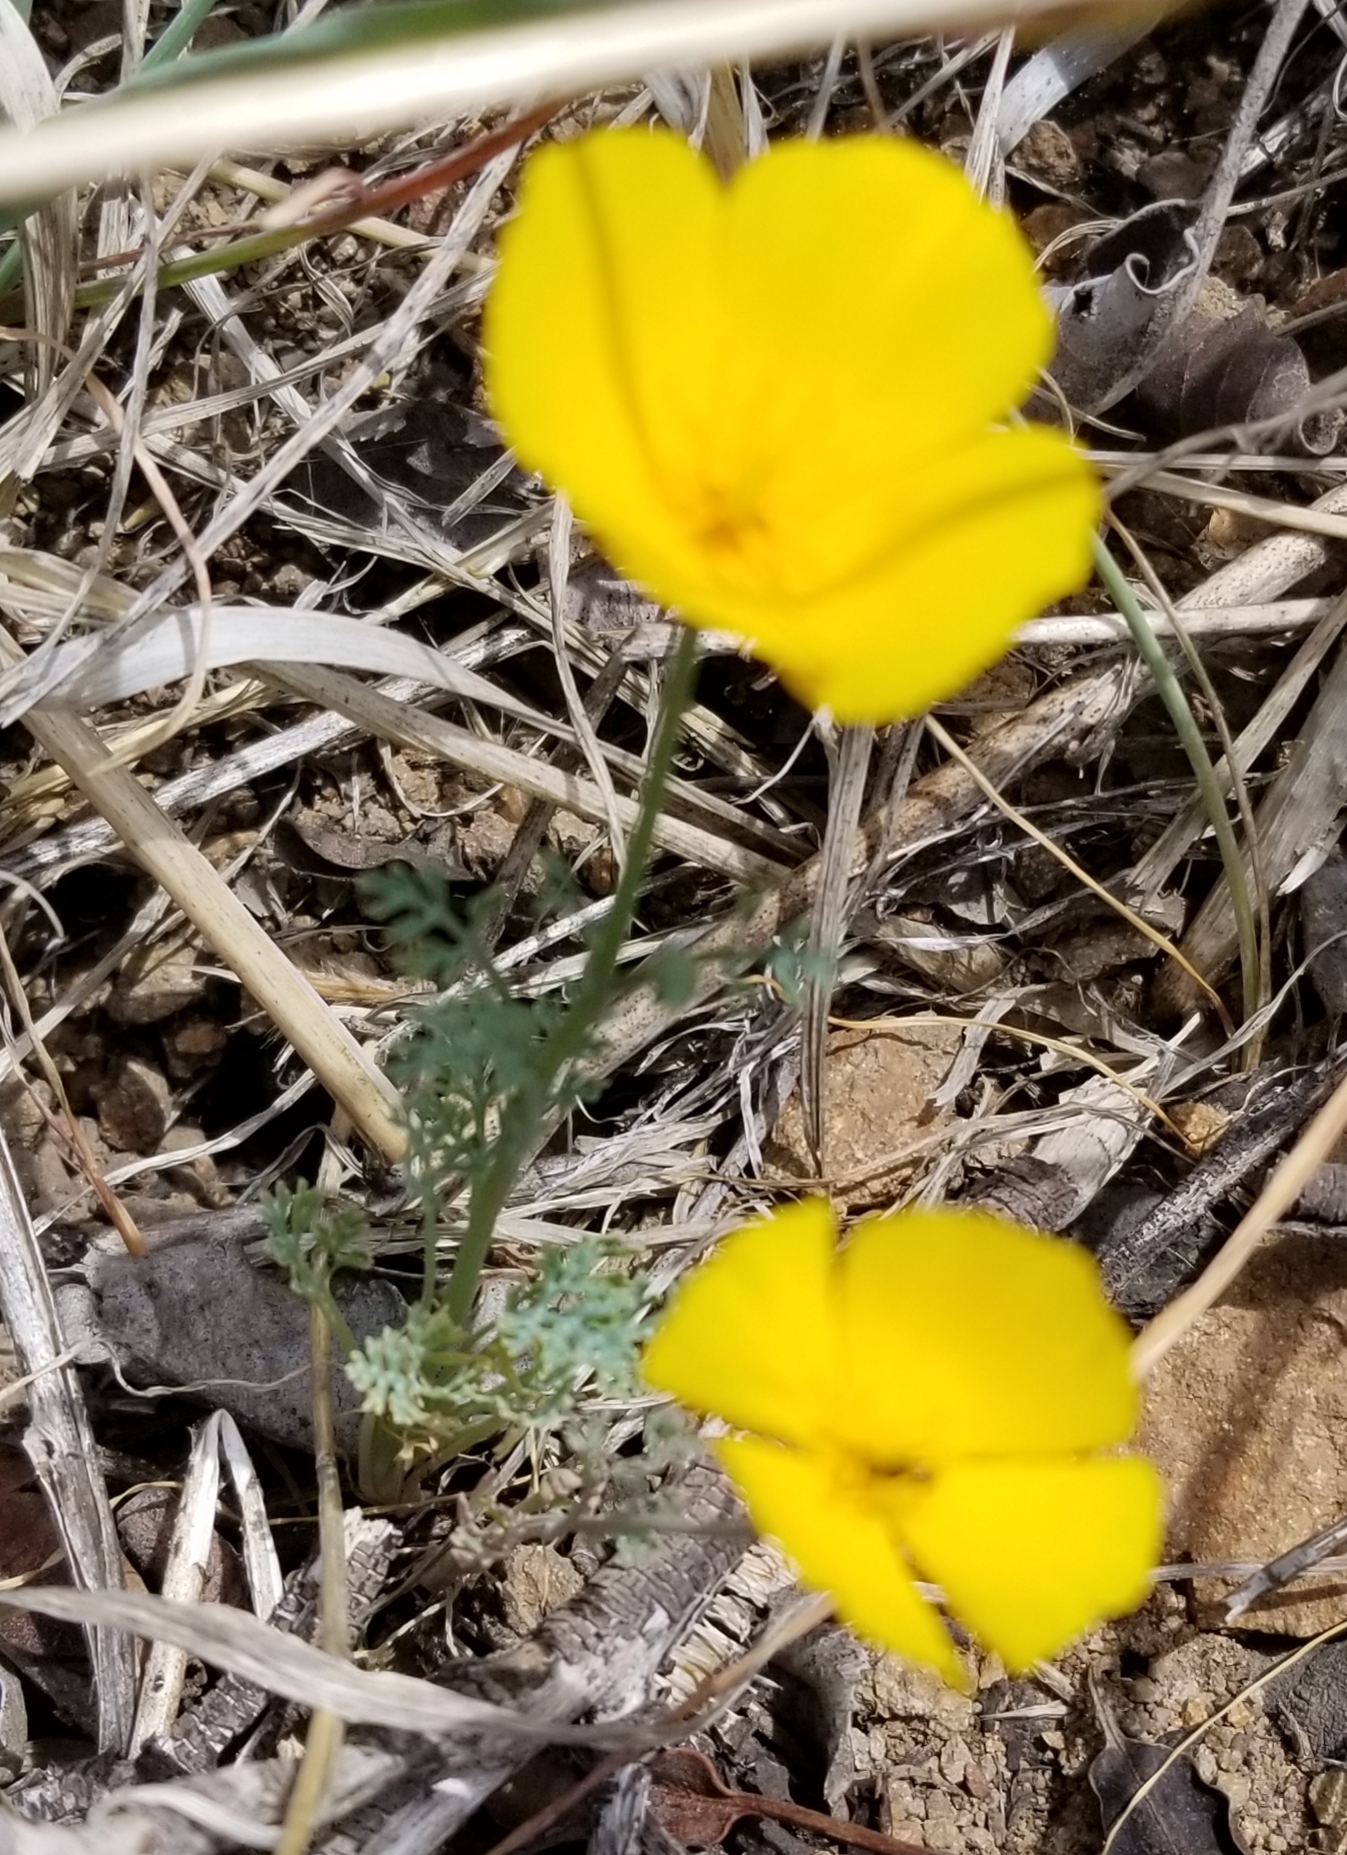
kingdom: Plantae
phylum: Tracheophyta
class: Magnoliopsida
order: Ranunculales
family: Papaveraceae
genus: Eschscholzia
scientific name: Eschscholzia californica
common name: California poppy
